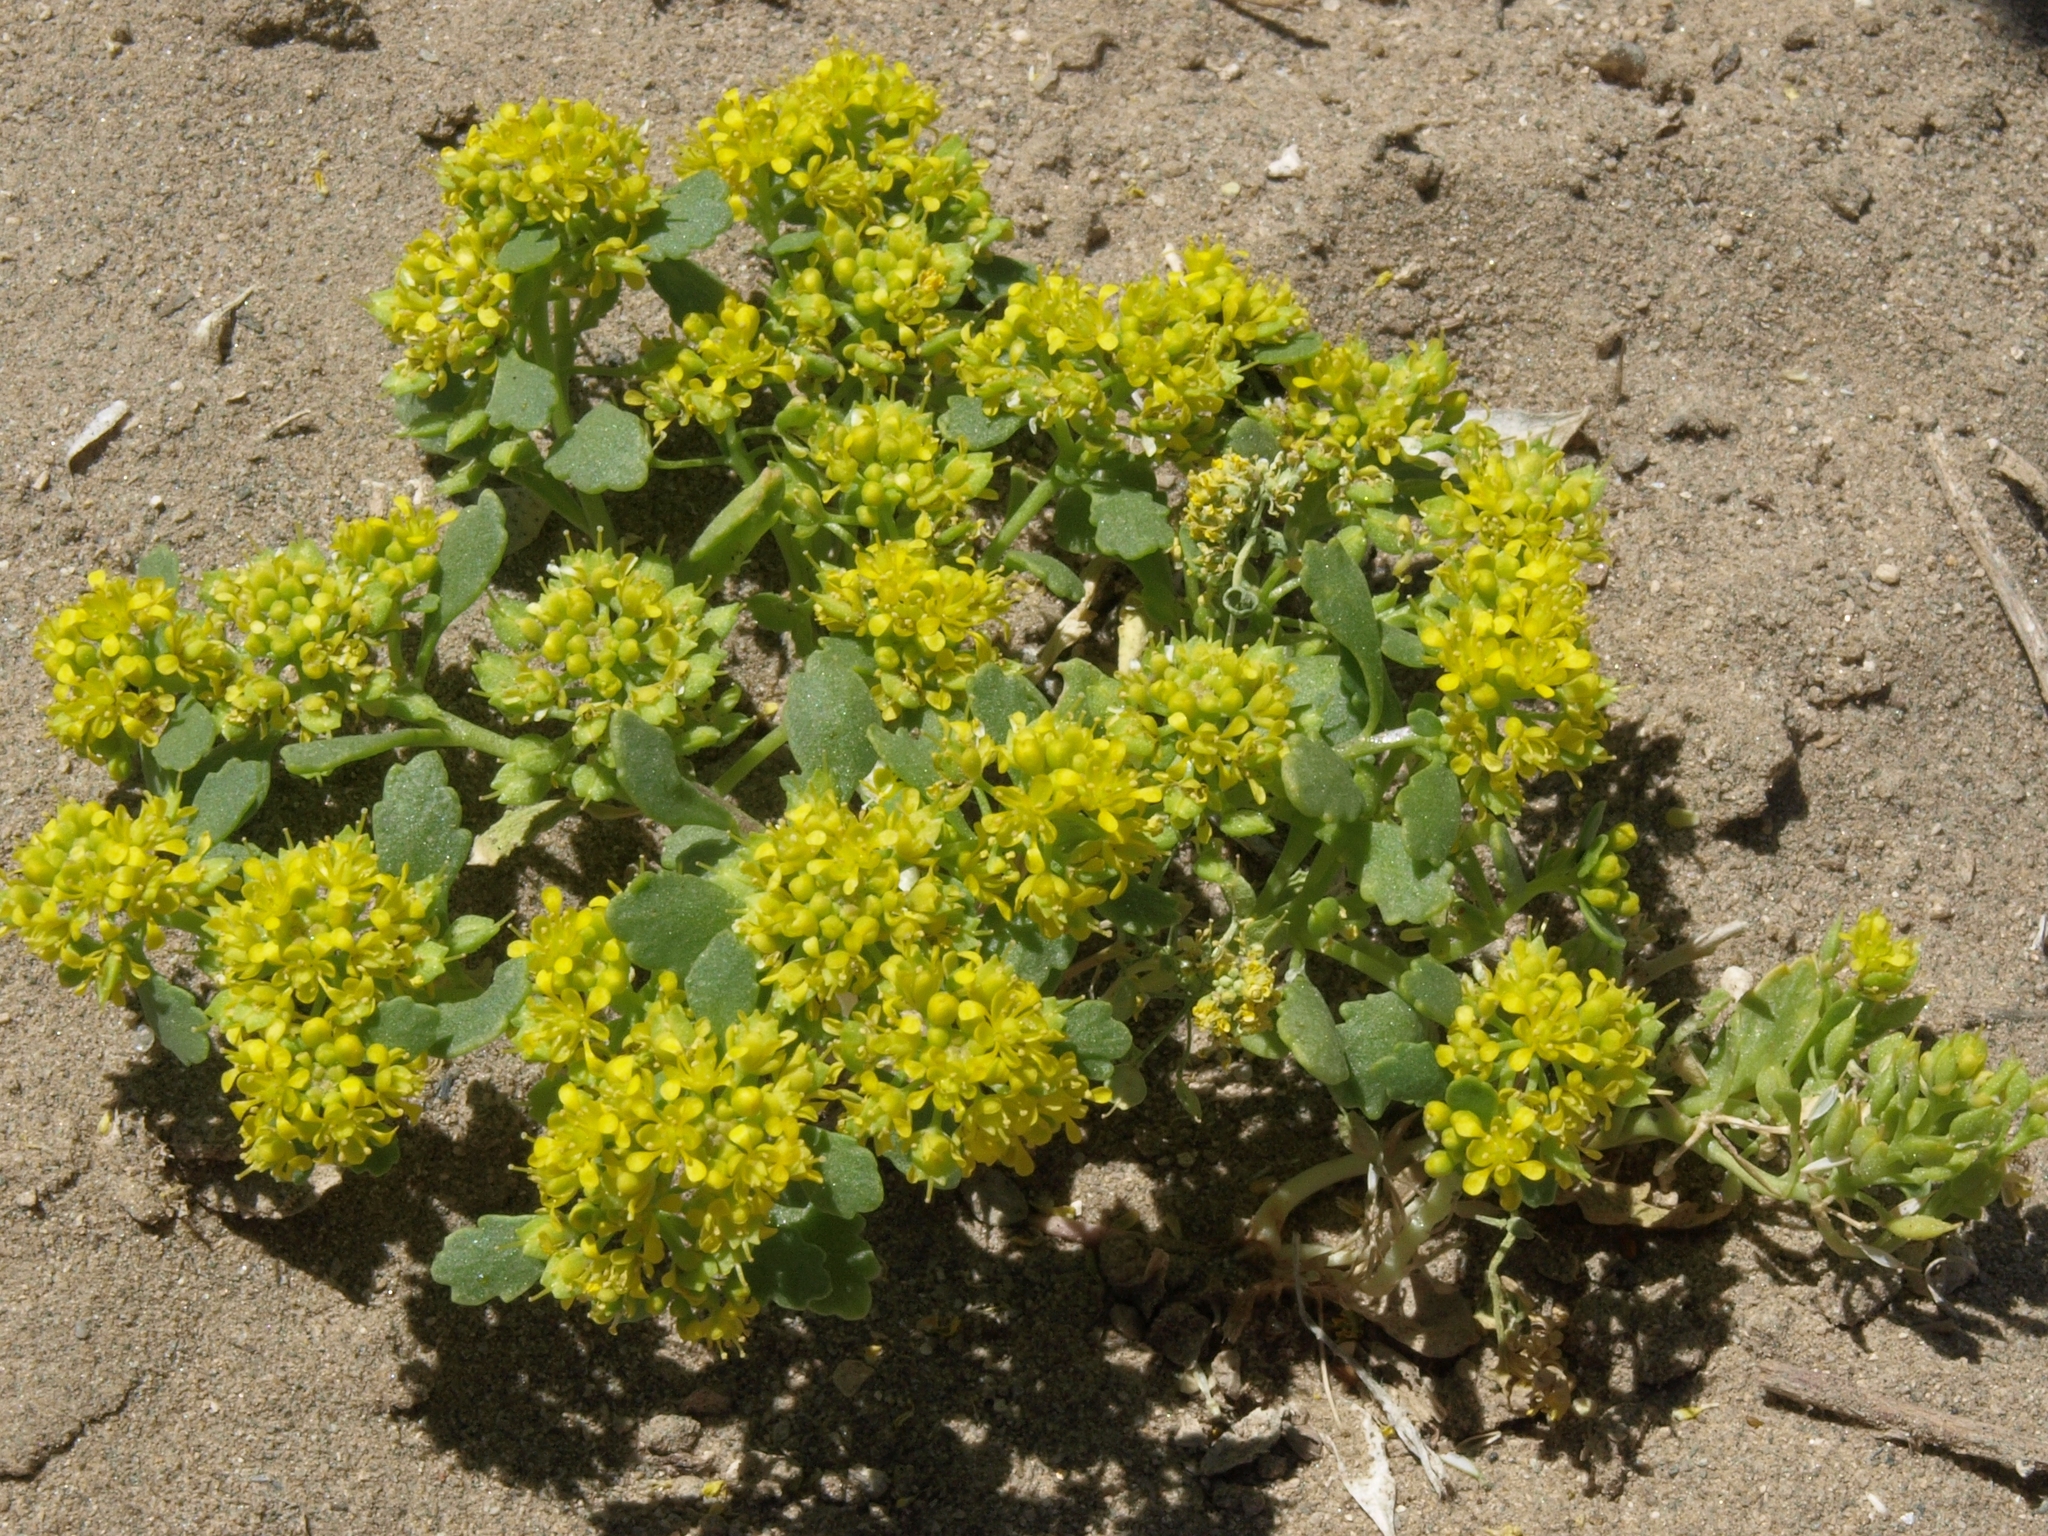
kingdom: Plantae
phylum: Tracheophyta
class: Magnoliopsida
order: Brassicales
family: Brassicaceae
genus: Lepidium
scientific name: Lepidium flavum
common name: Yellow pepperwort
